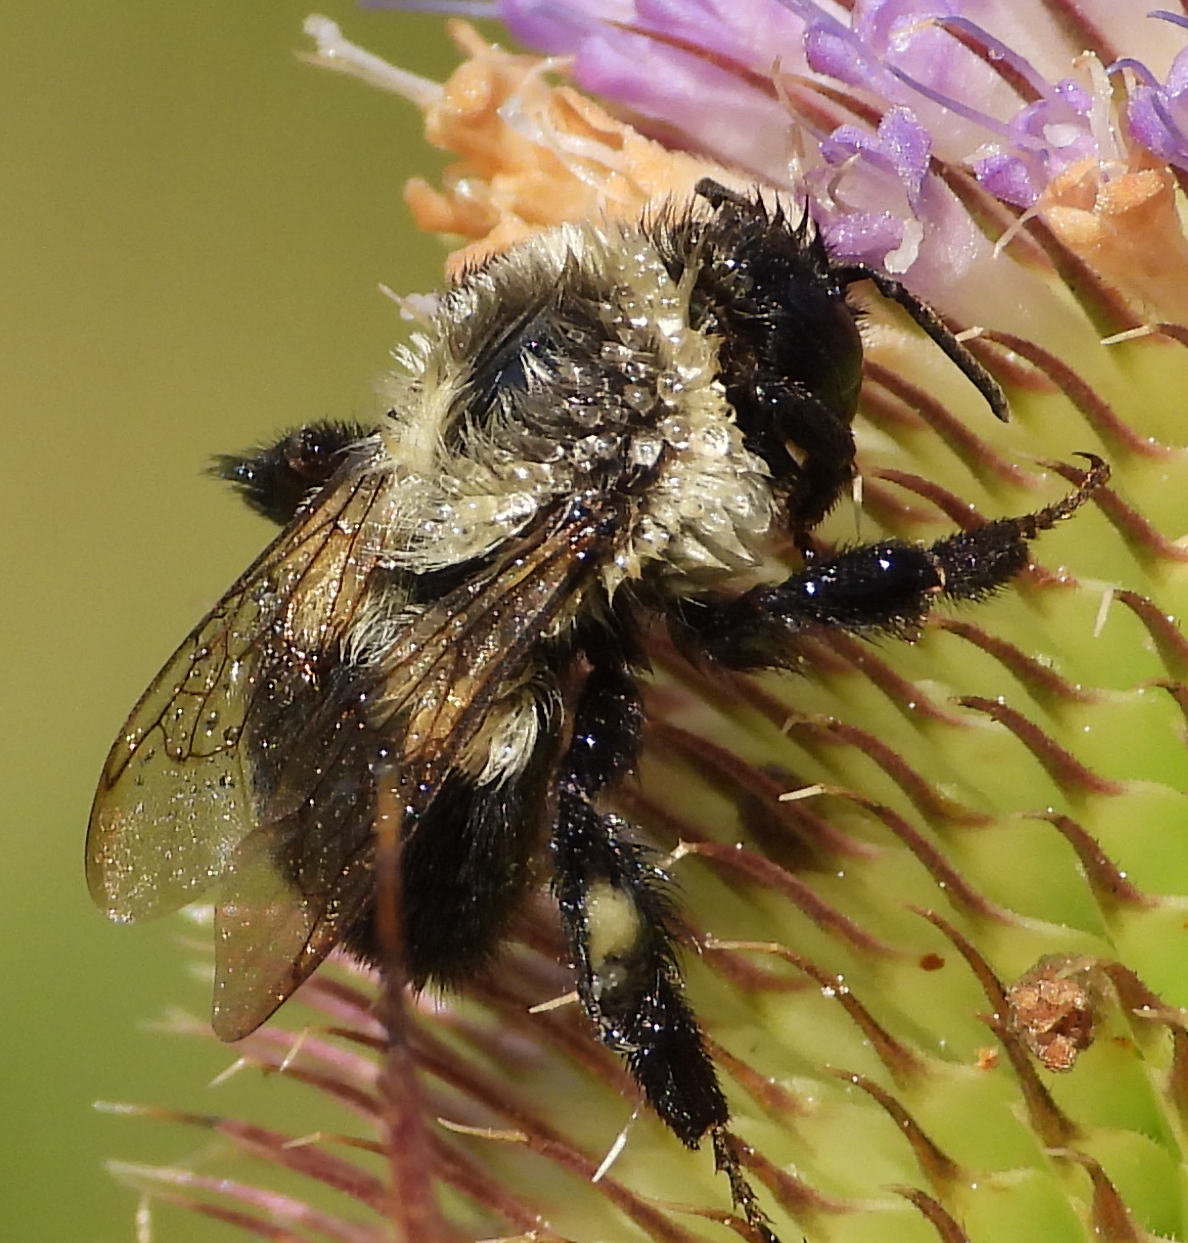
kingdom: Animalia
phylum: Arthropoda
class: Insecta
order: Hymenoptera
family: Apidae
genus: Bombus
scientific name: Bombus impatiens
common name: Common eastern bumble bee
